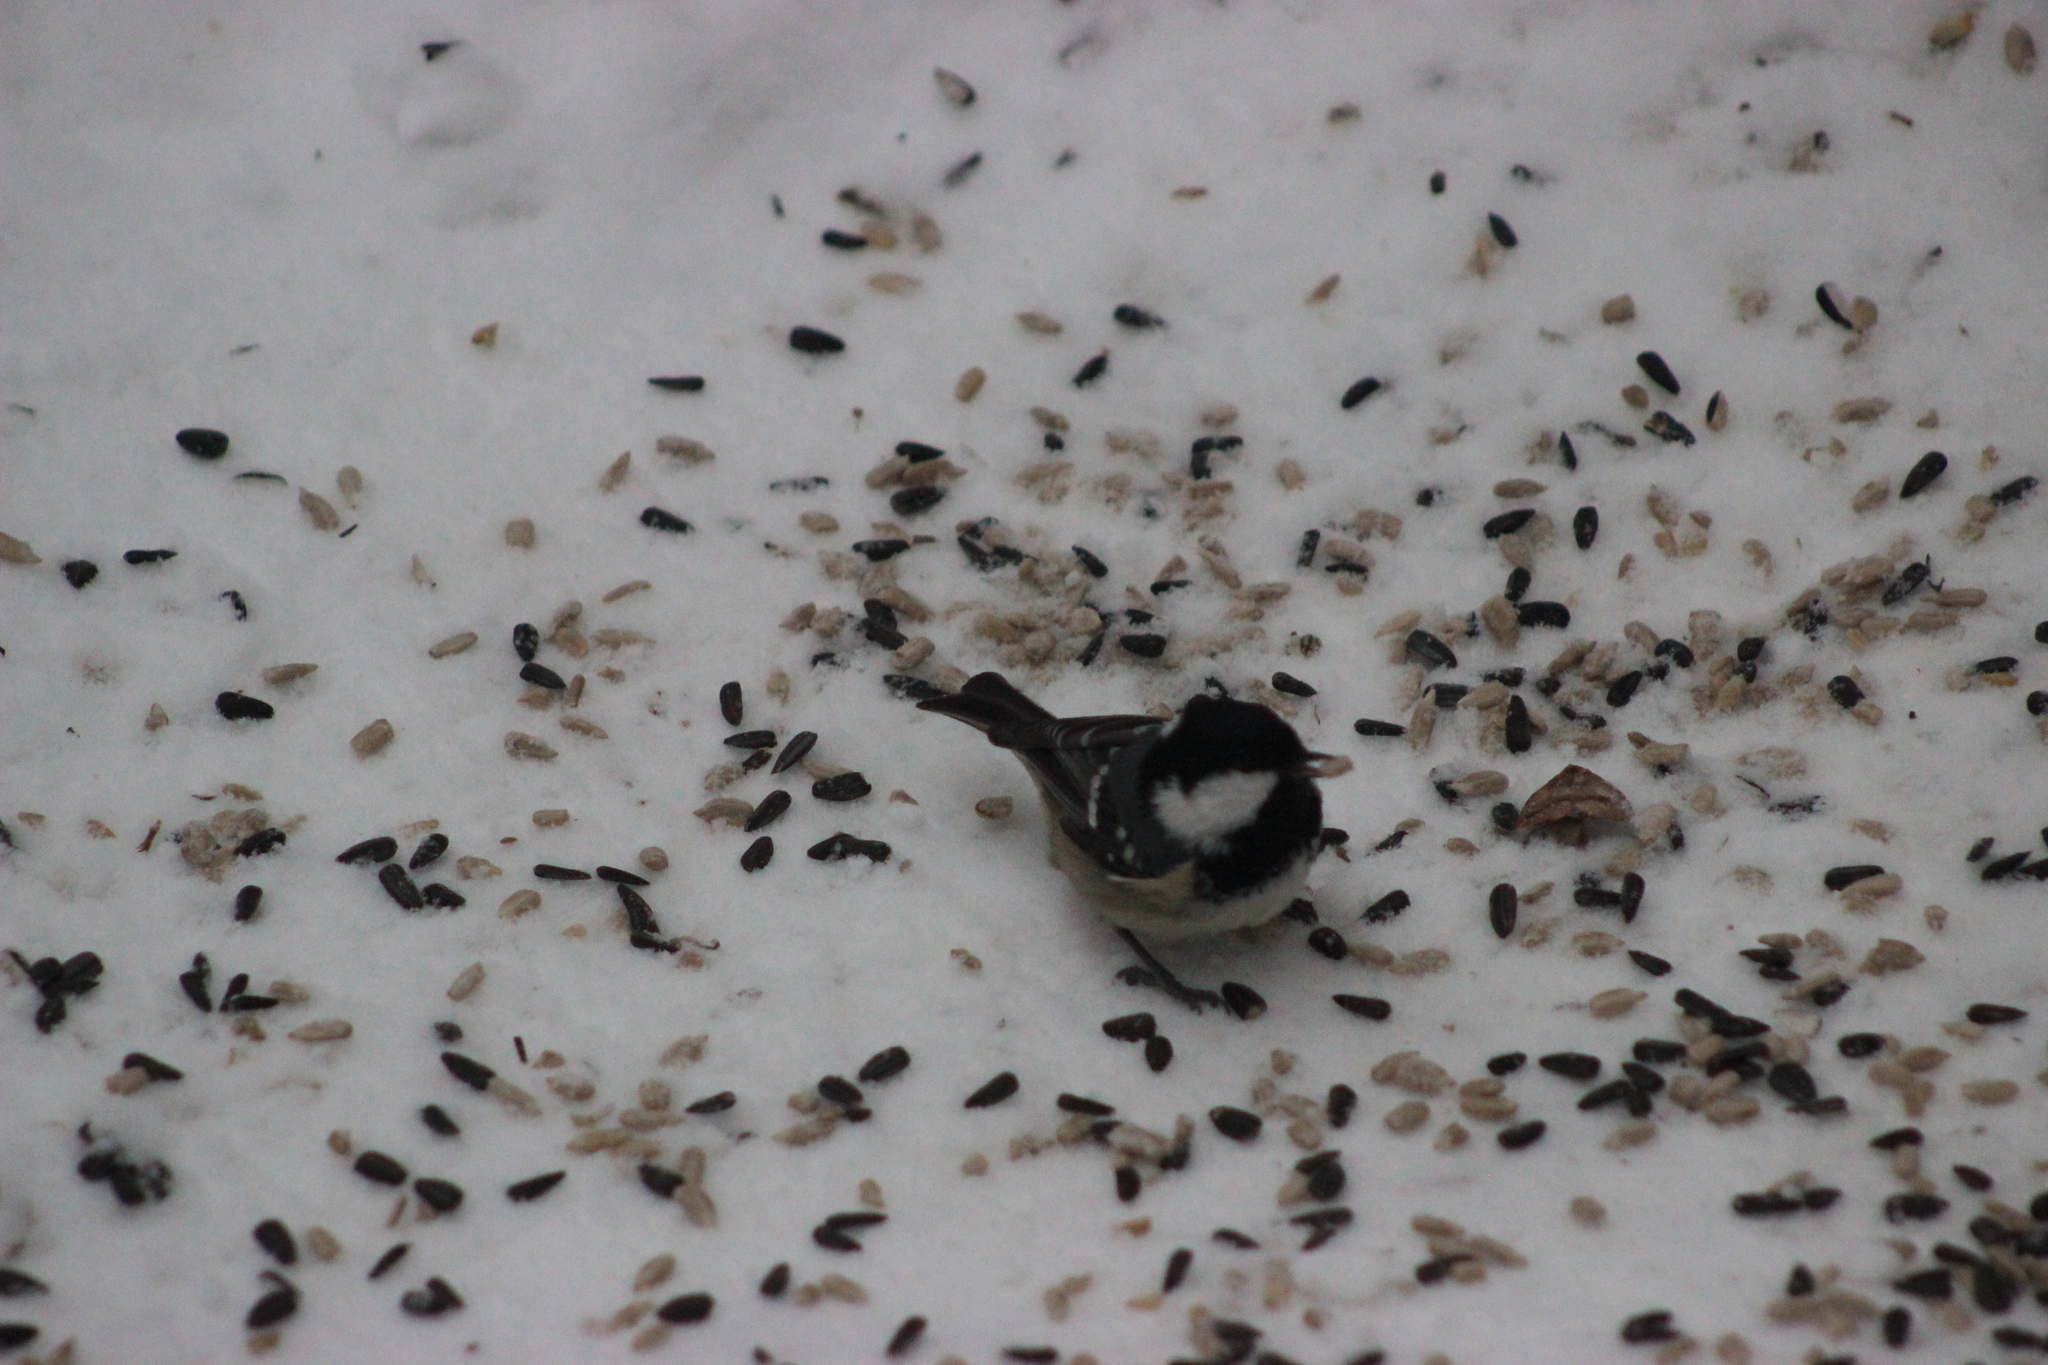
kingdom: Animalia
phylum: Chordata
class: Aves
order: Passeriformes
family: Paridae
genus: Periparus
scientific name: Periparus ater
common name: Coal tit
